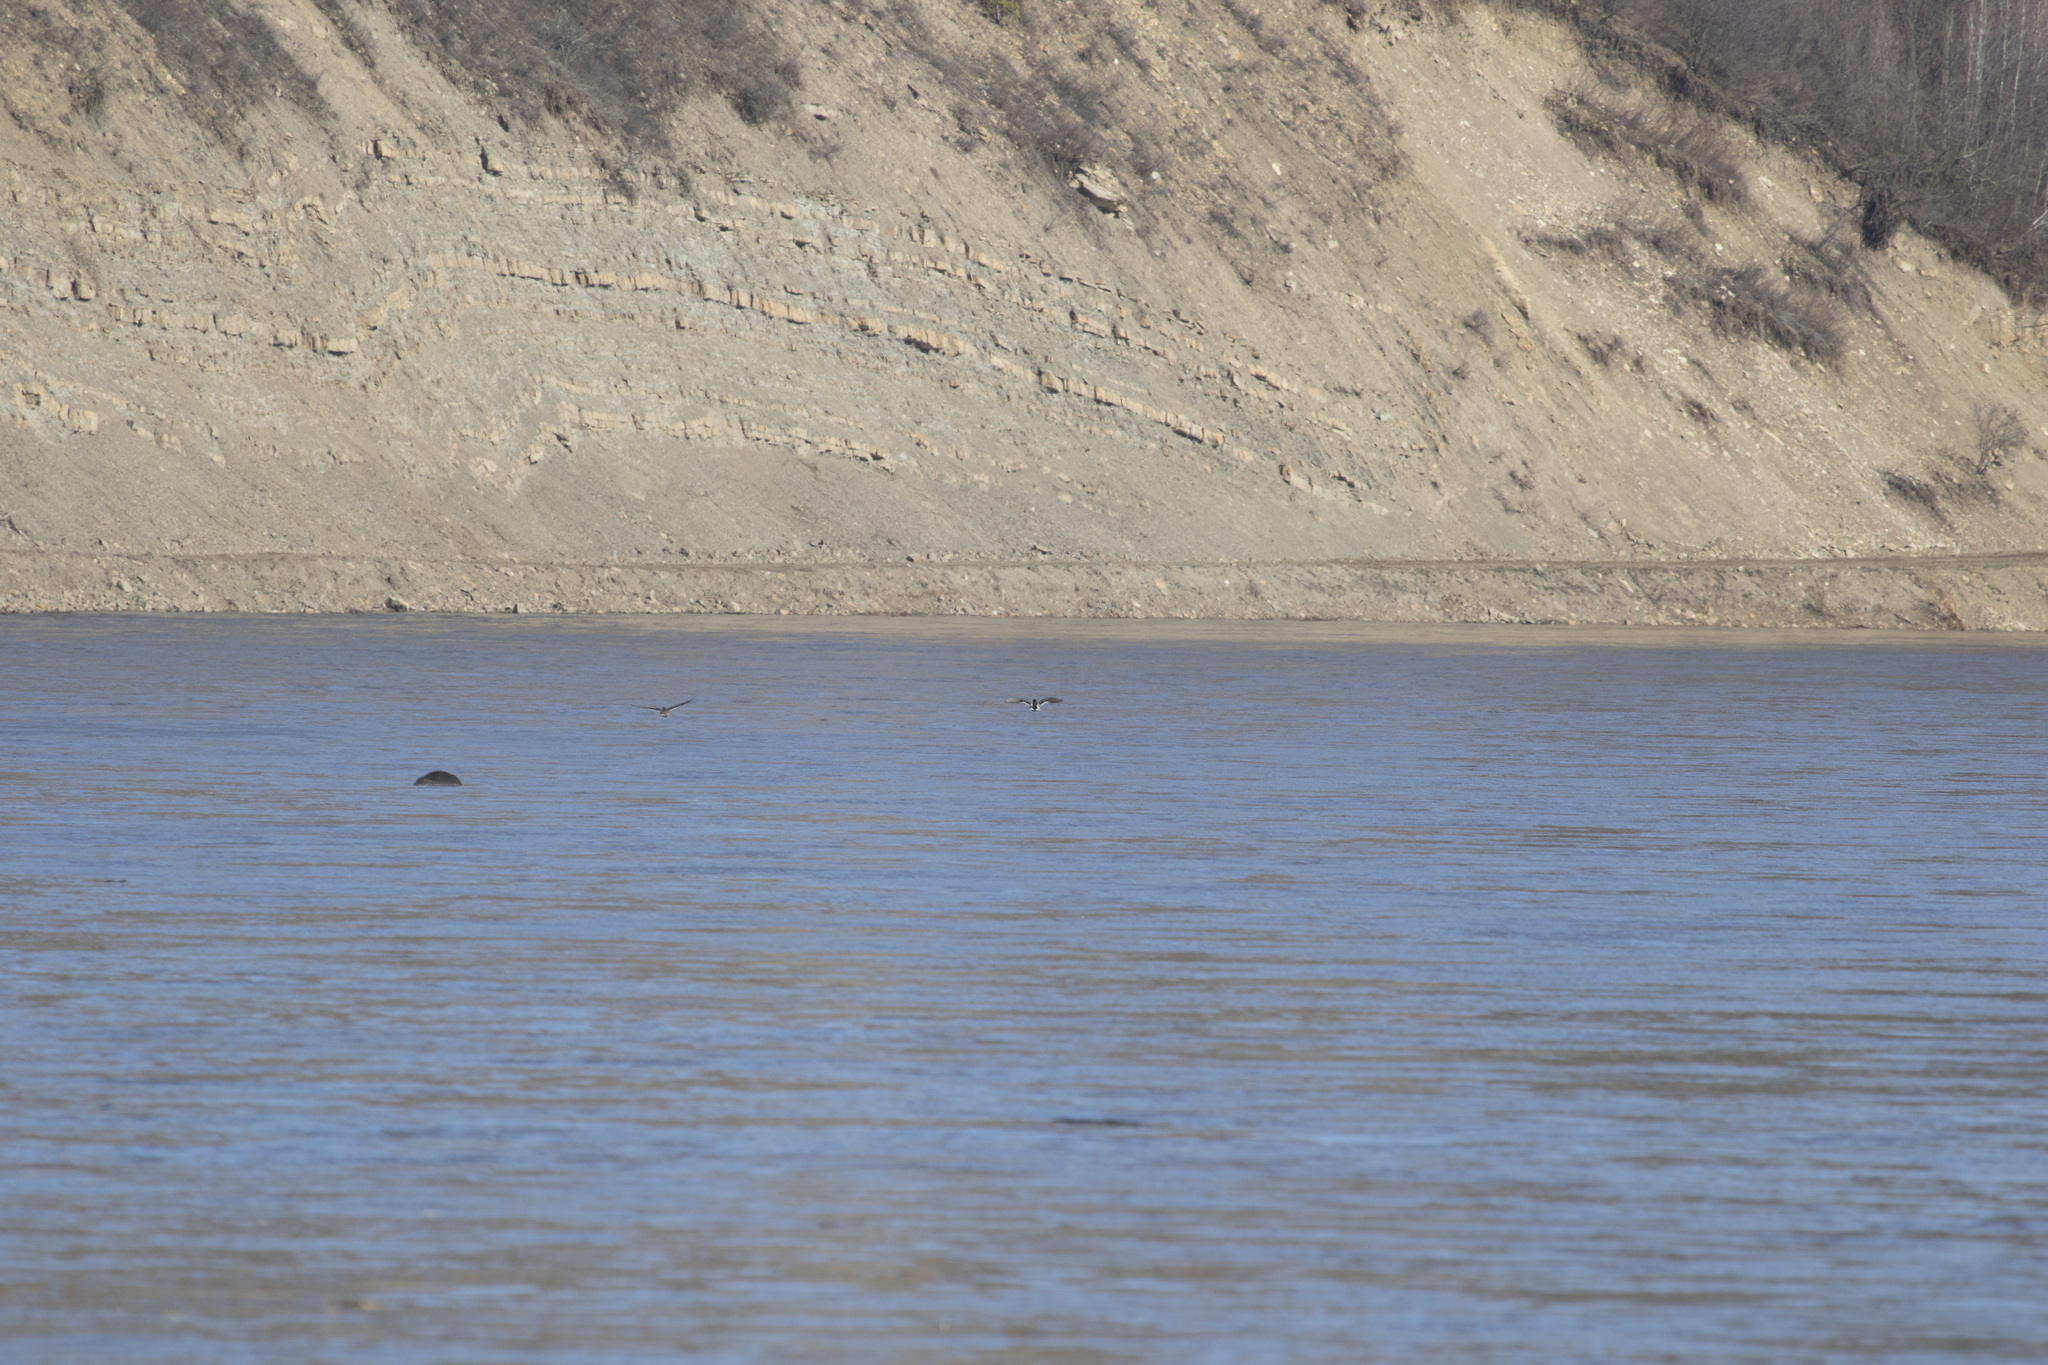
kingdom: Animalia
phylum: Chordata
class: Aves
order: Anseriformes
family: Anatidae
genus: Anas
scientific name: Anas platyrhynchos
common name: Mallard
